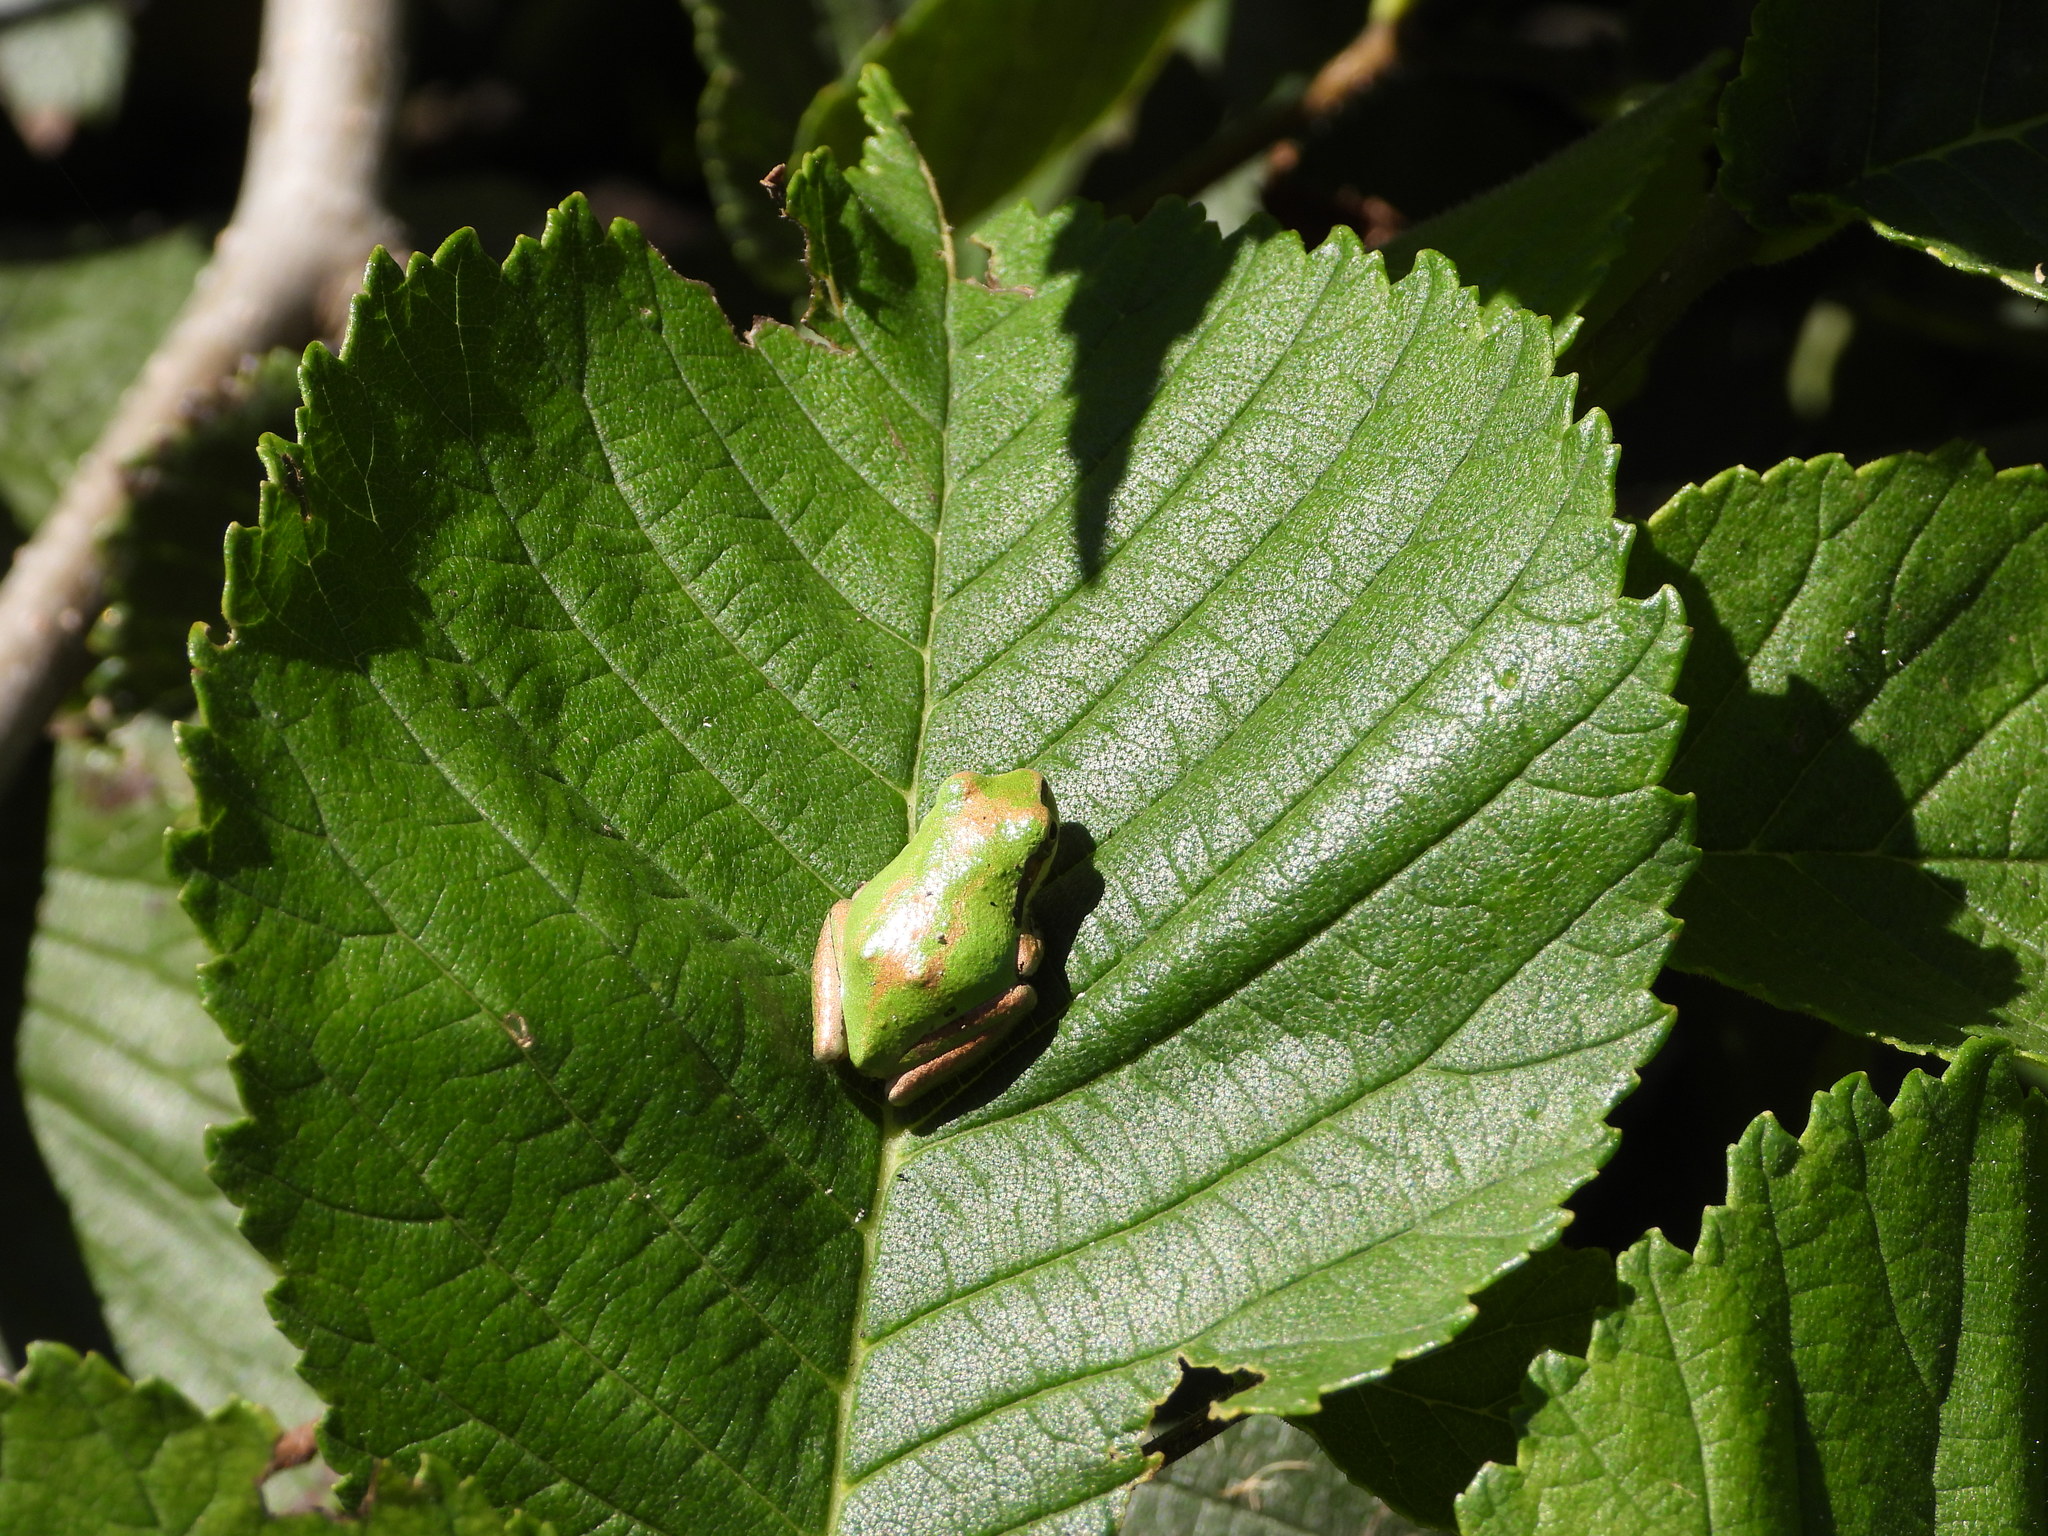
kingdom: Animalia
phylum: Chordata
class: Amphibia
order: Anura
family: Hylidae
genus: Pseudacris
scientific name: Pseudacris regilla
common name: Pacific chorus frog
